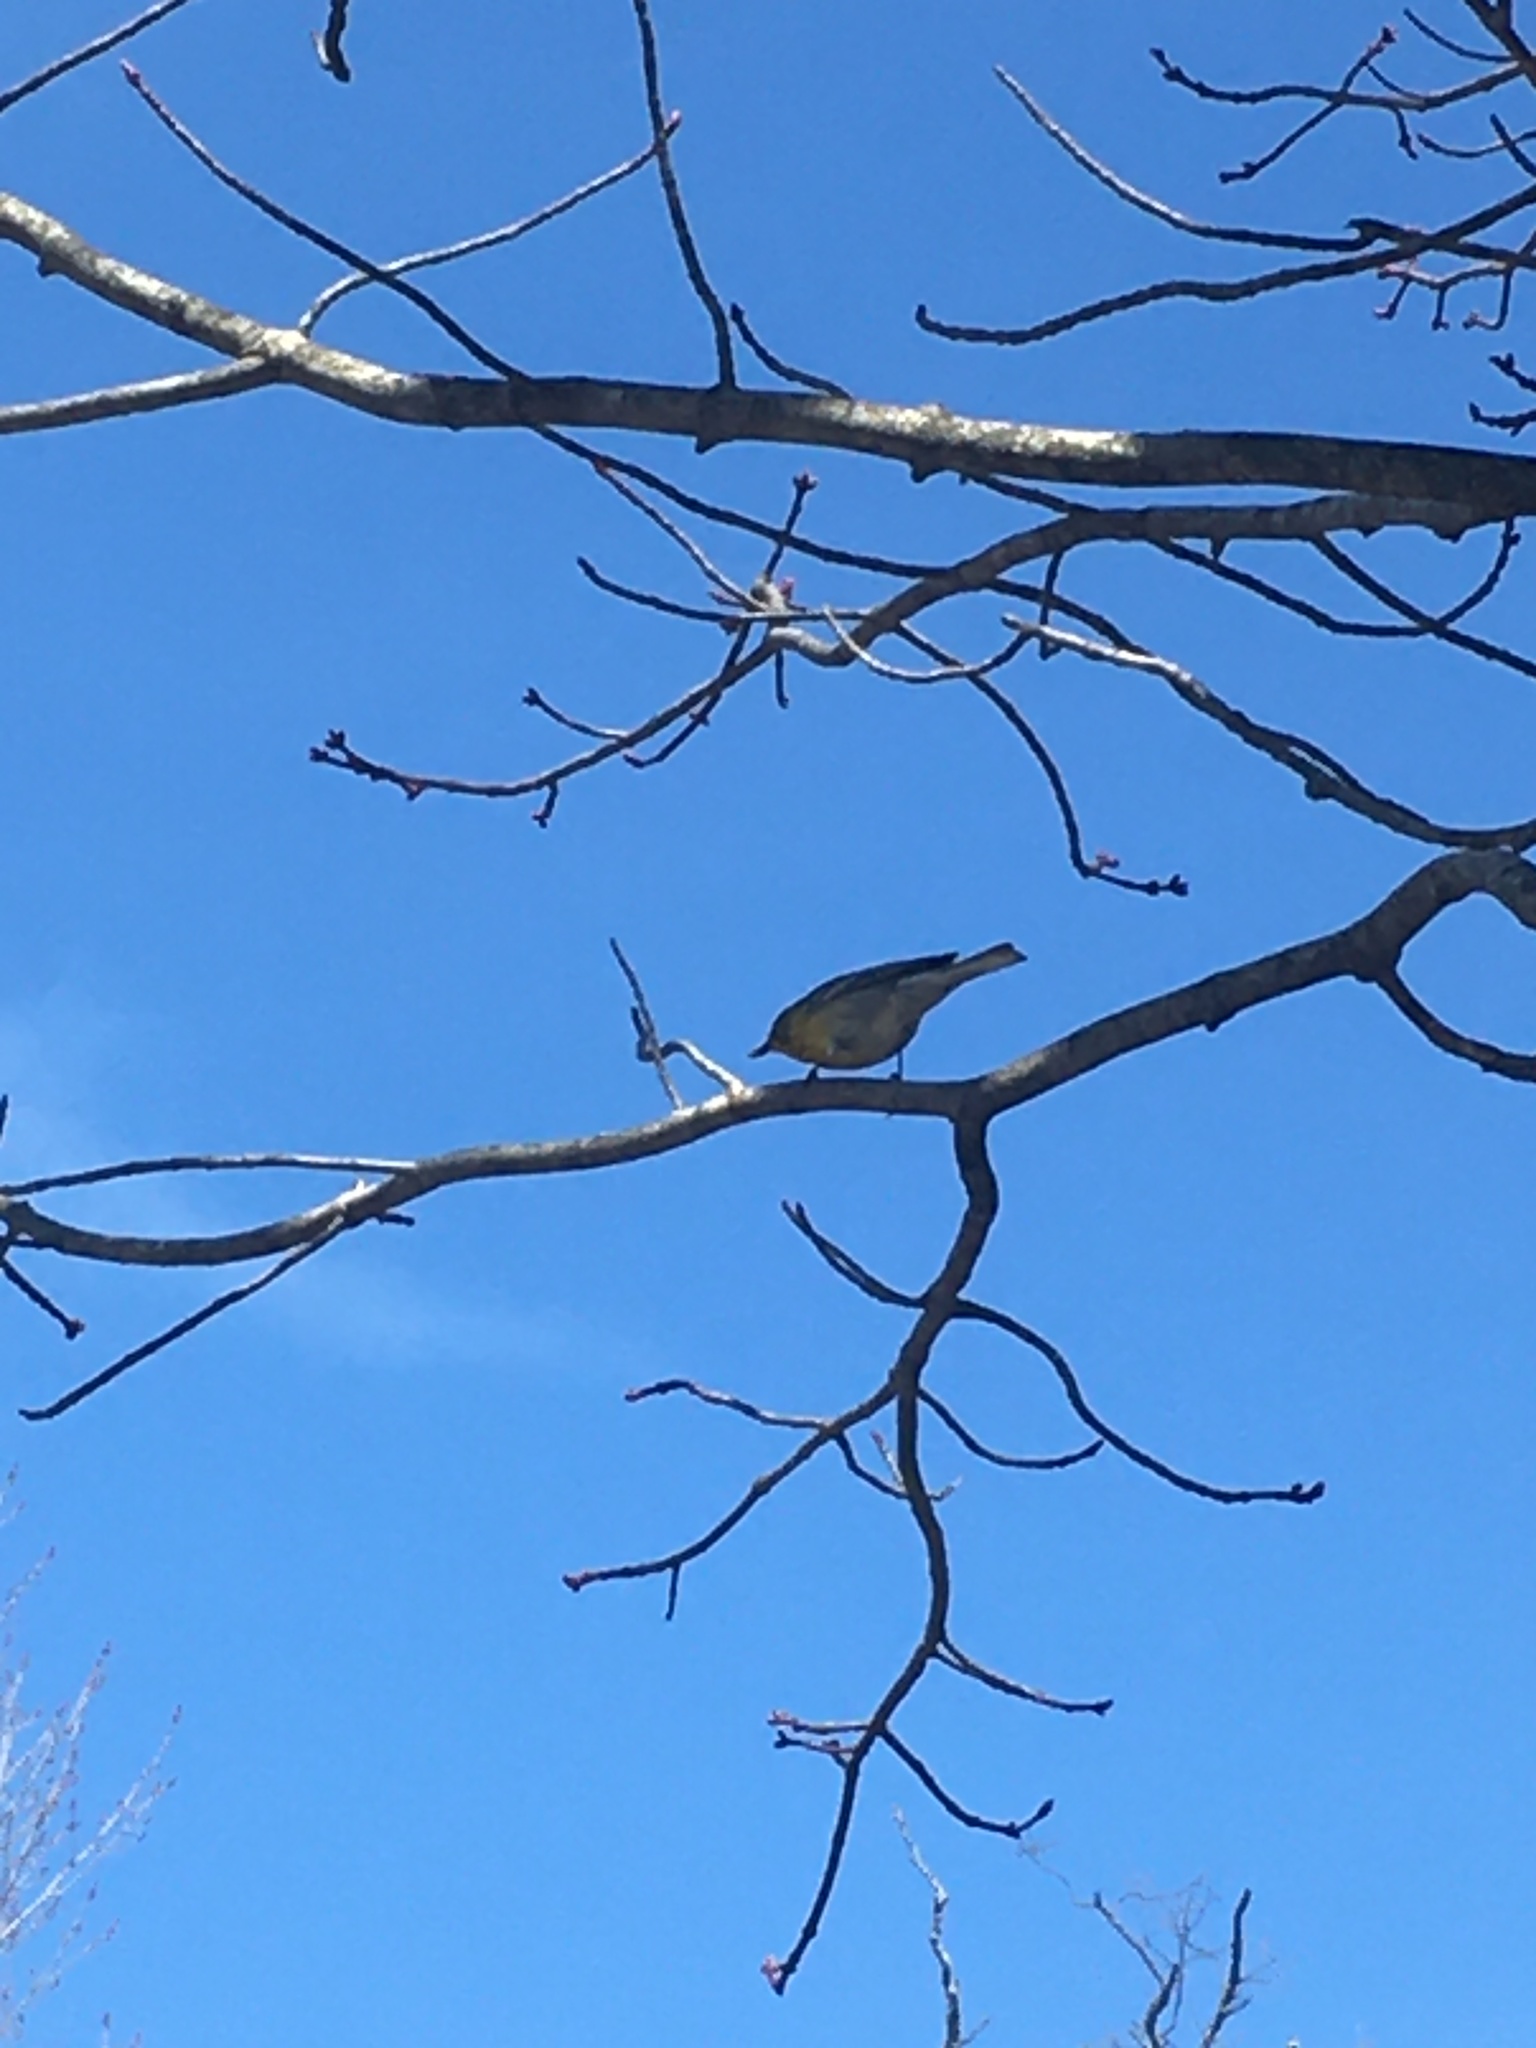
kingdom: Animalia
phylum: Chordata
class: Aves
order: Passeriformes
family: Parulidae
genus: Setophaga
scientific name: Setophaga pinus
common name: Pine warbler
